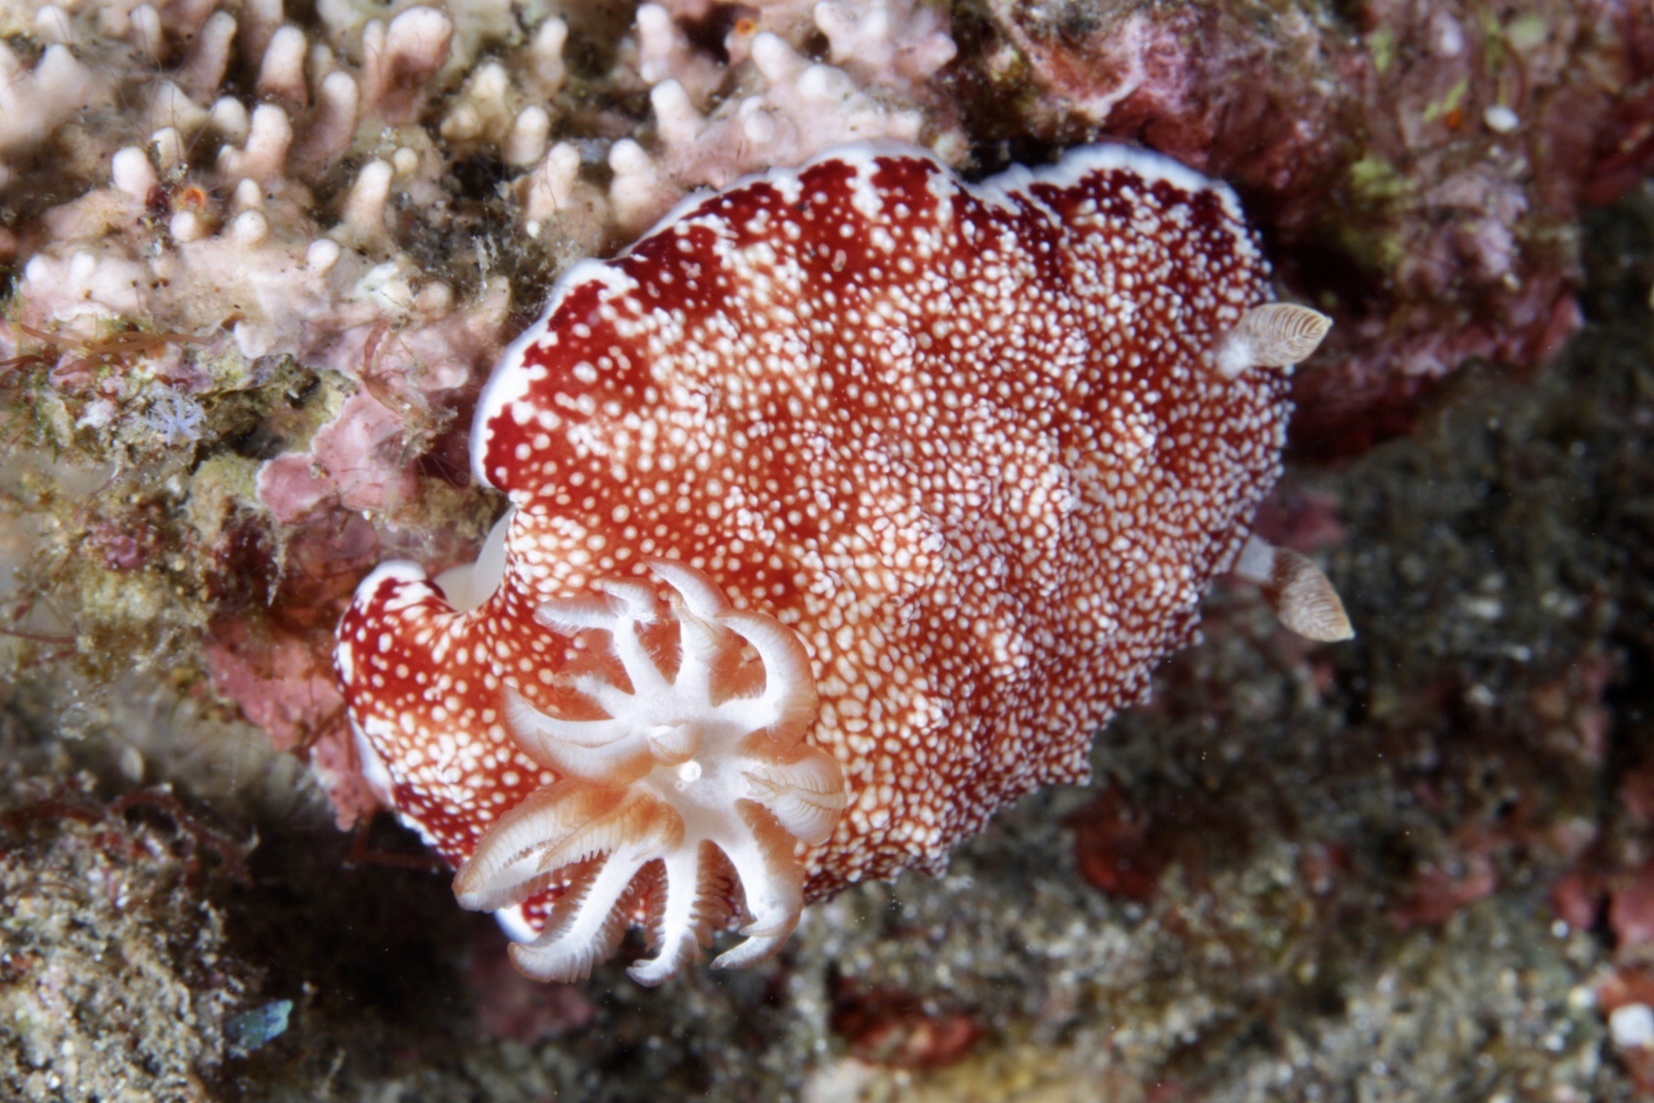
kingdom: Animalia
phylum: Mollusca
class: Gastropoda
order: Nudibranchia
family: Chromodorididae
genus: Goniobranchus
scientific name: Goniobranchus reticulatus
